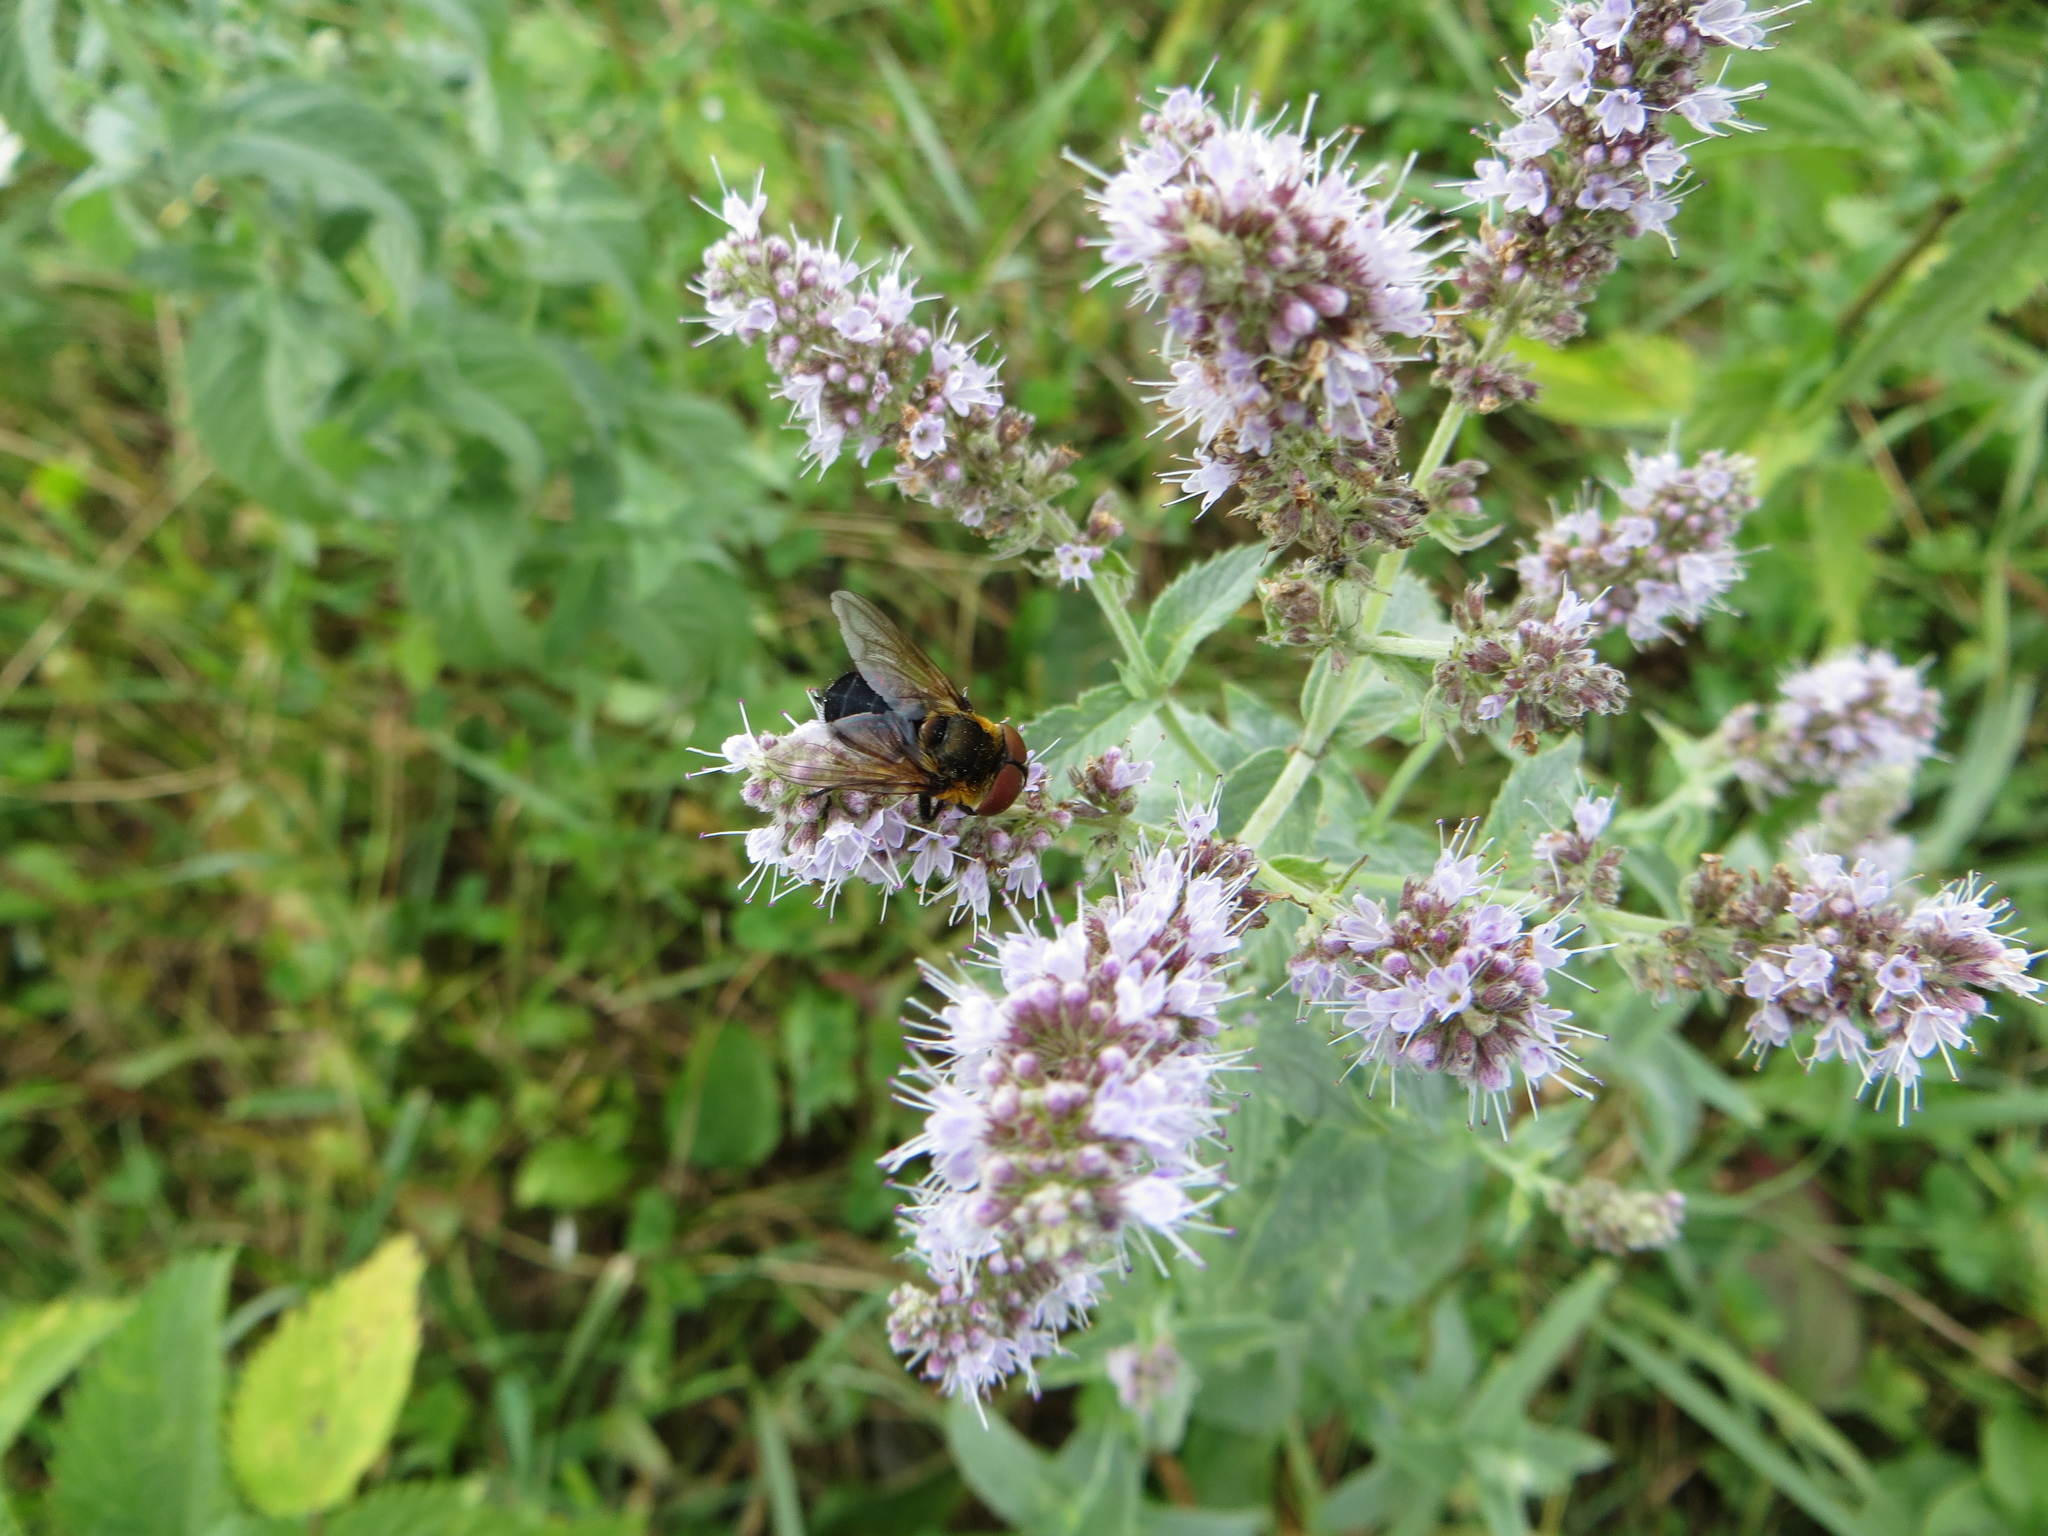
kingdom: Animalia
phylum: Arthropoda
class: Insecta
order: Diptera
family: Tachinidae
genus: Phasia
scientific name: Phasia hemiptera
